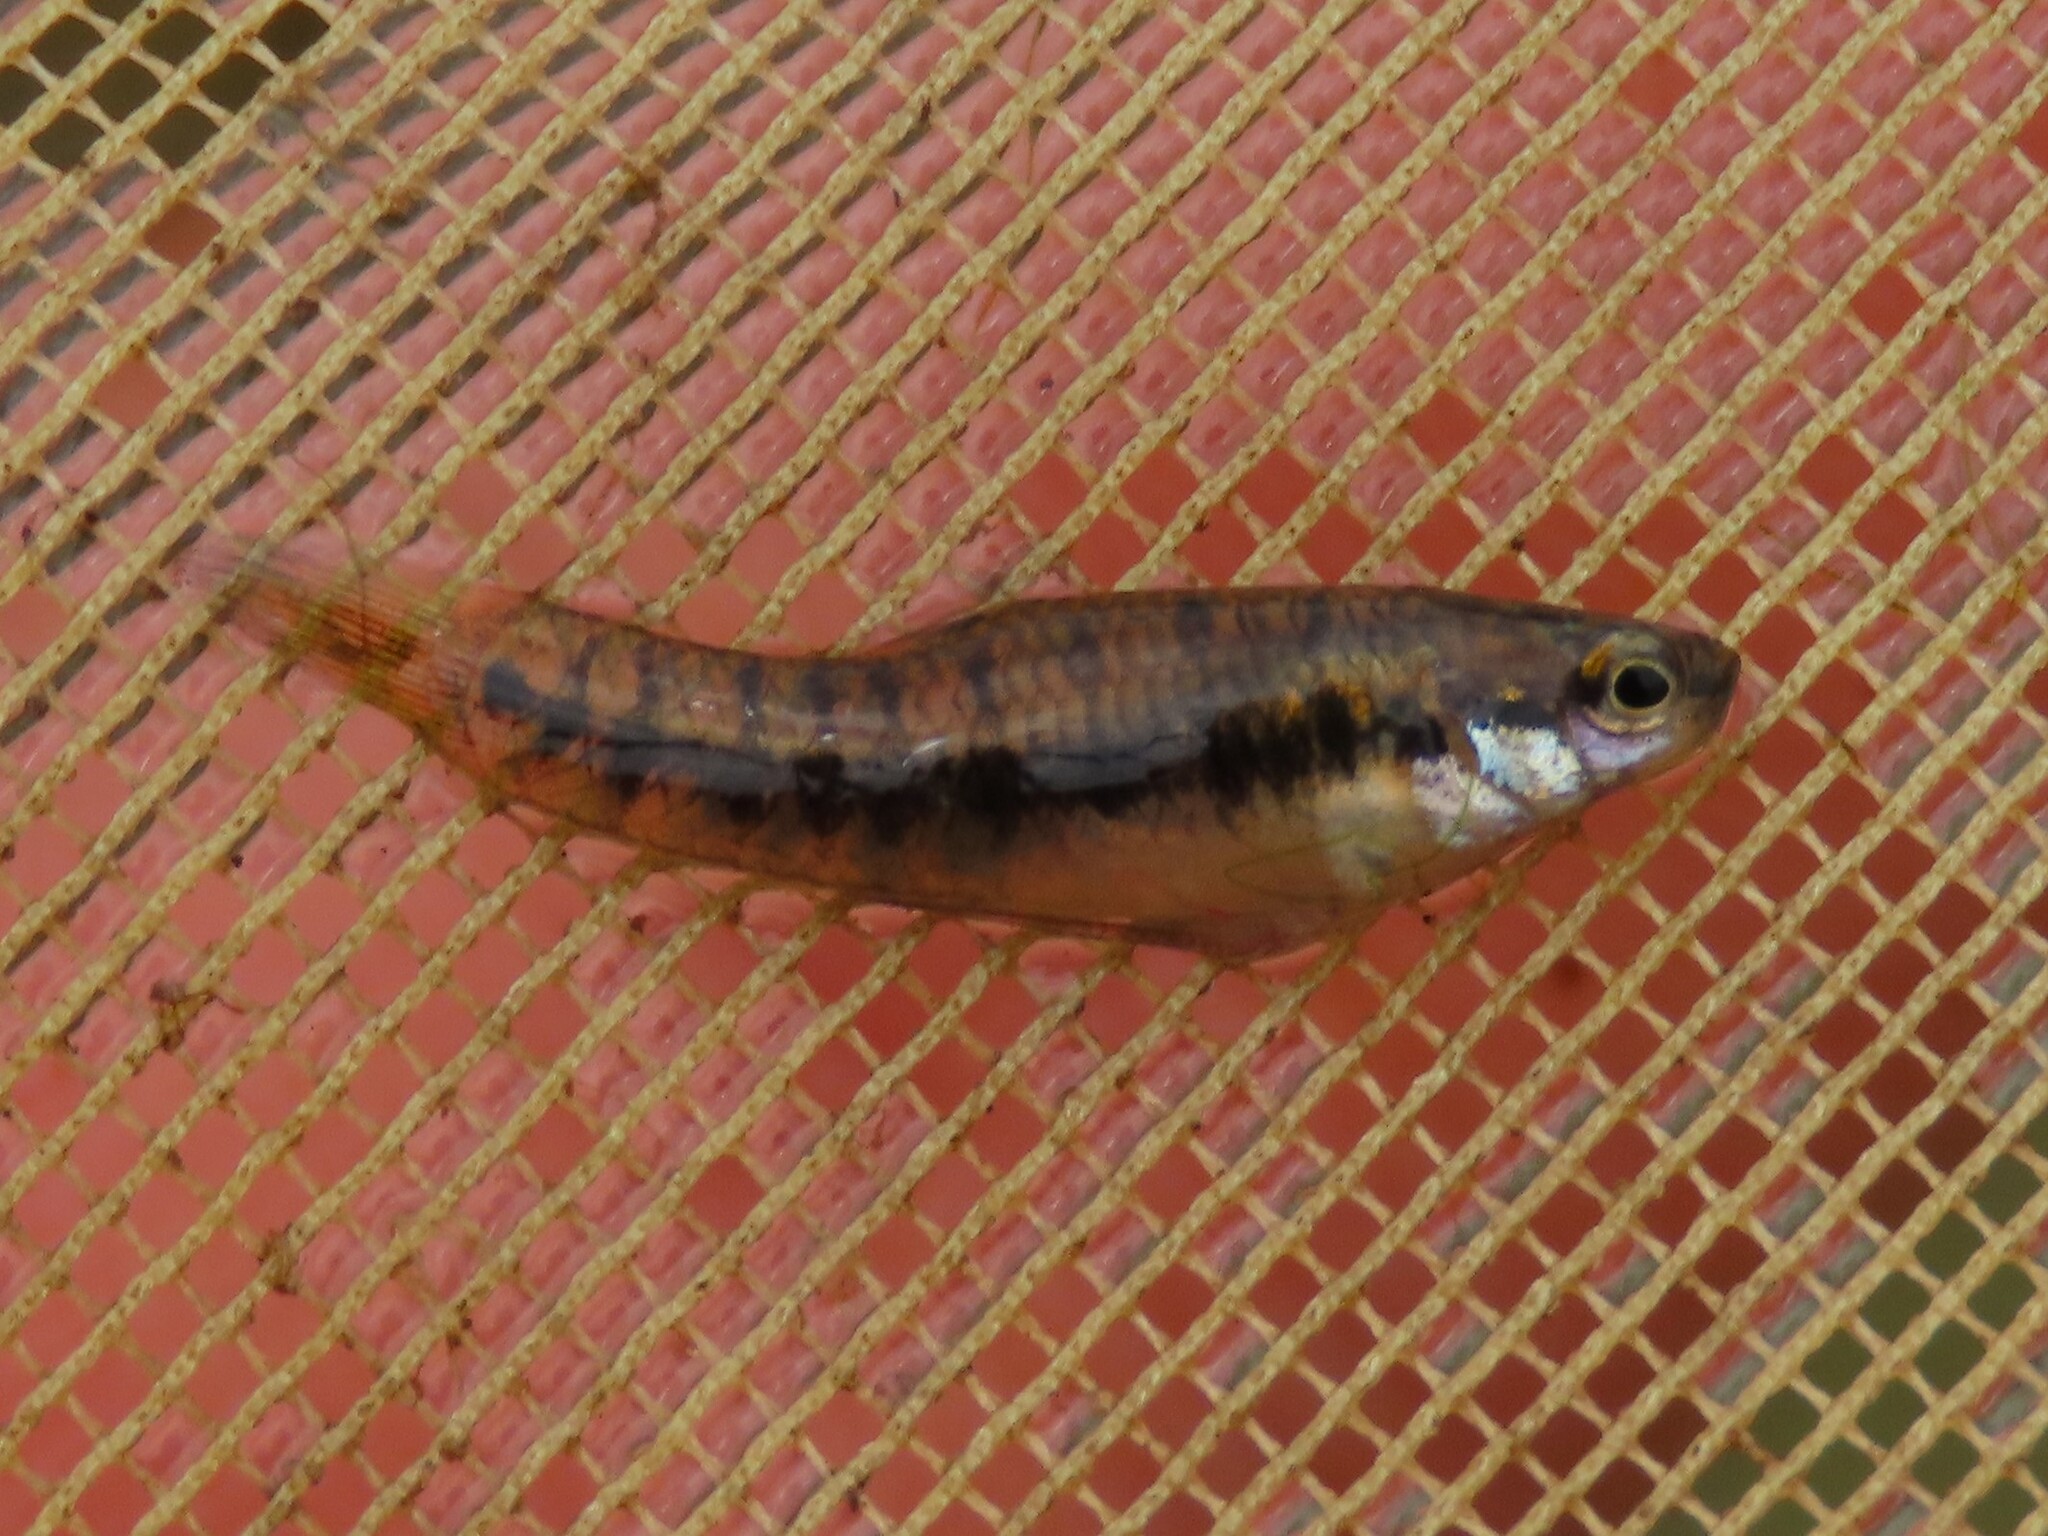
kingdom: Animalia
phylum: Chordata
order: Cyprinodontiformes
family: Poeciliidae
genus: Heterandria
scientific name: Heterandria formosa
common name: Least killifish
